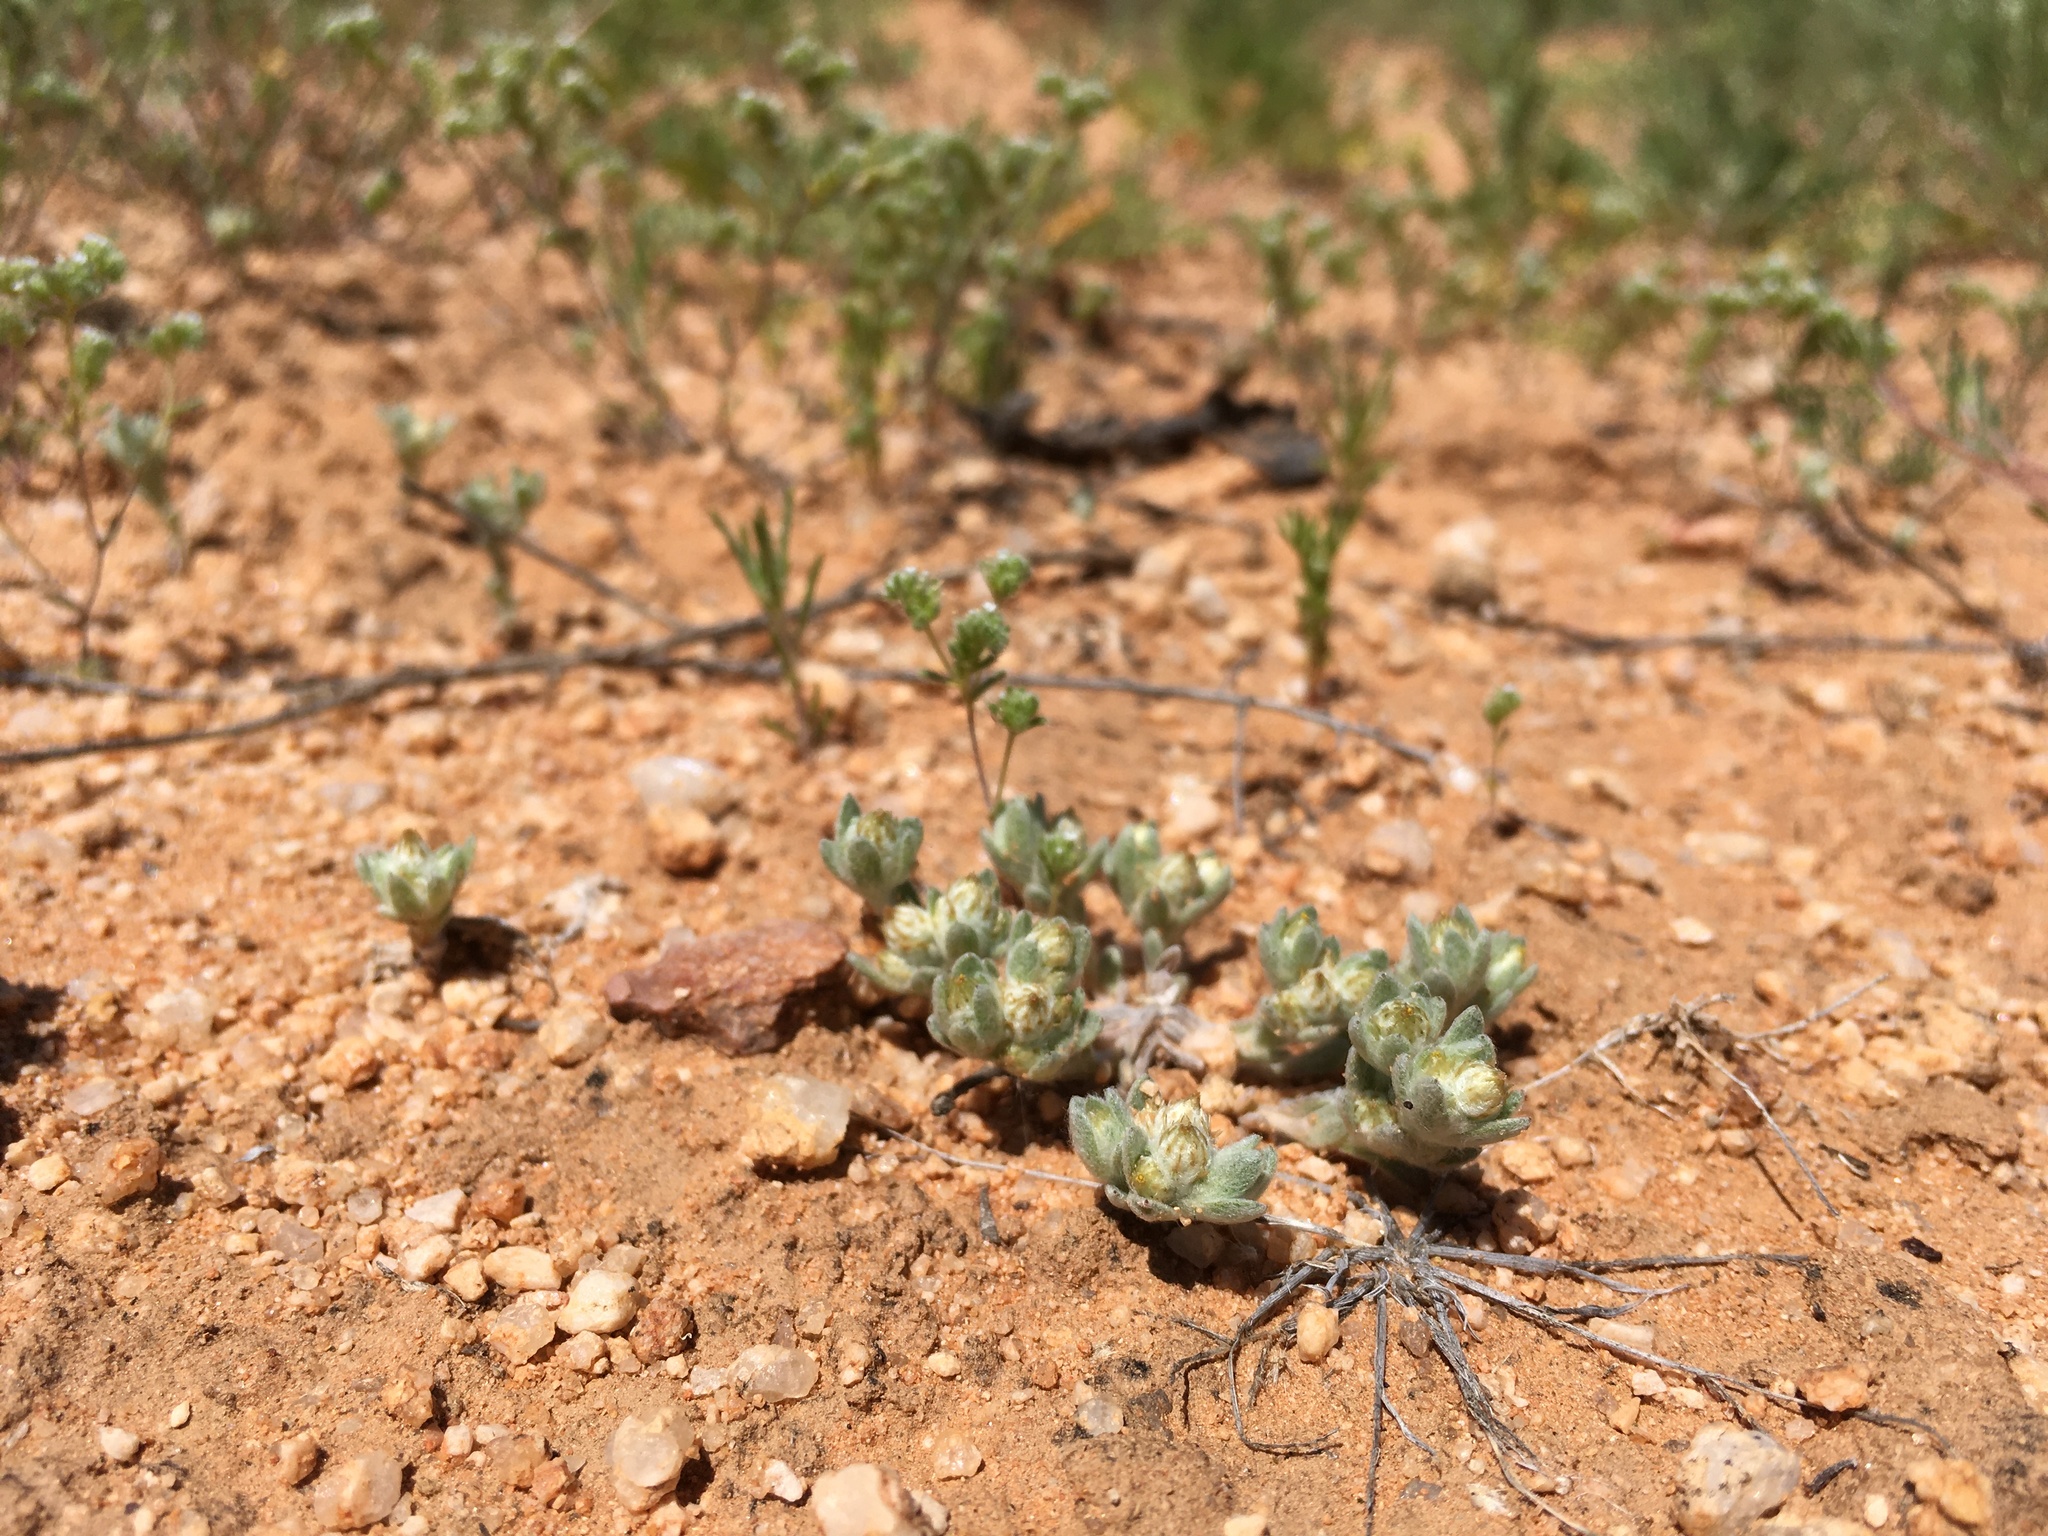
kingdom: Plantae
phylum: Tracheophyta
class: Magnoliopsida
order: Asterales
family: Asteraceae
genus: Stylocline
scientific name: Stylocline sonorensis
